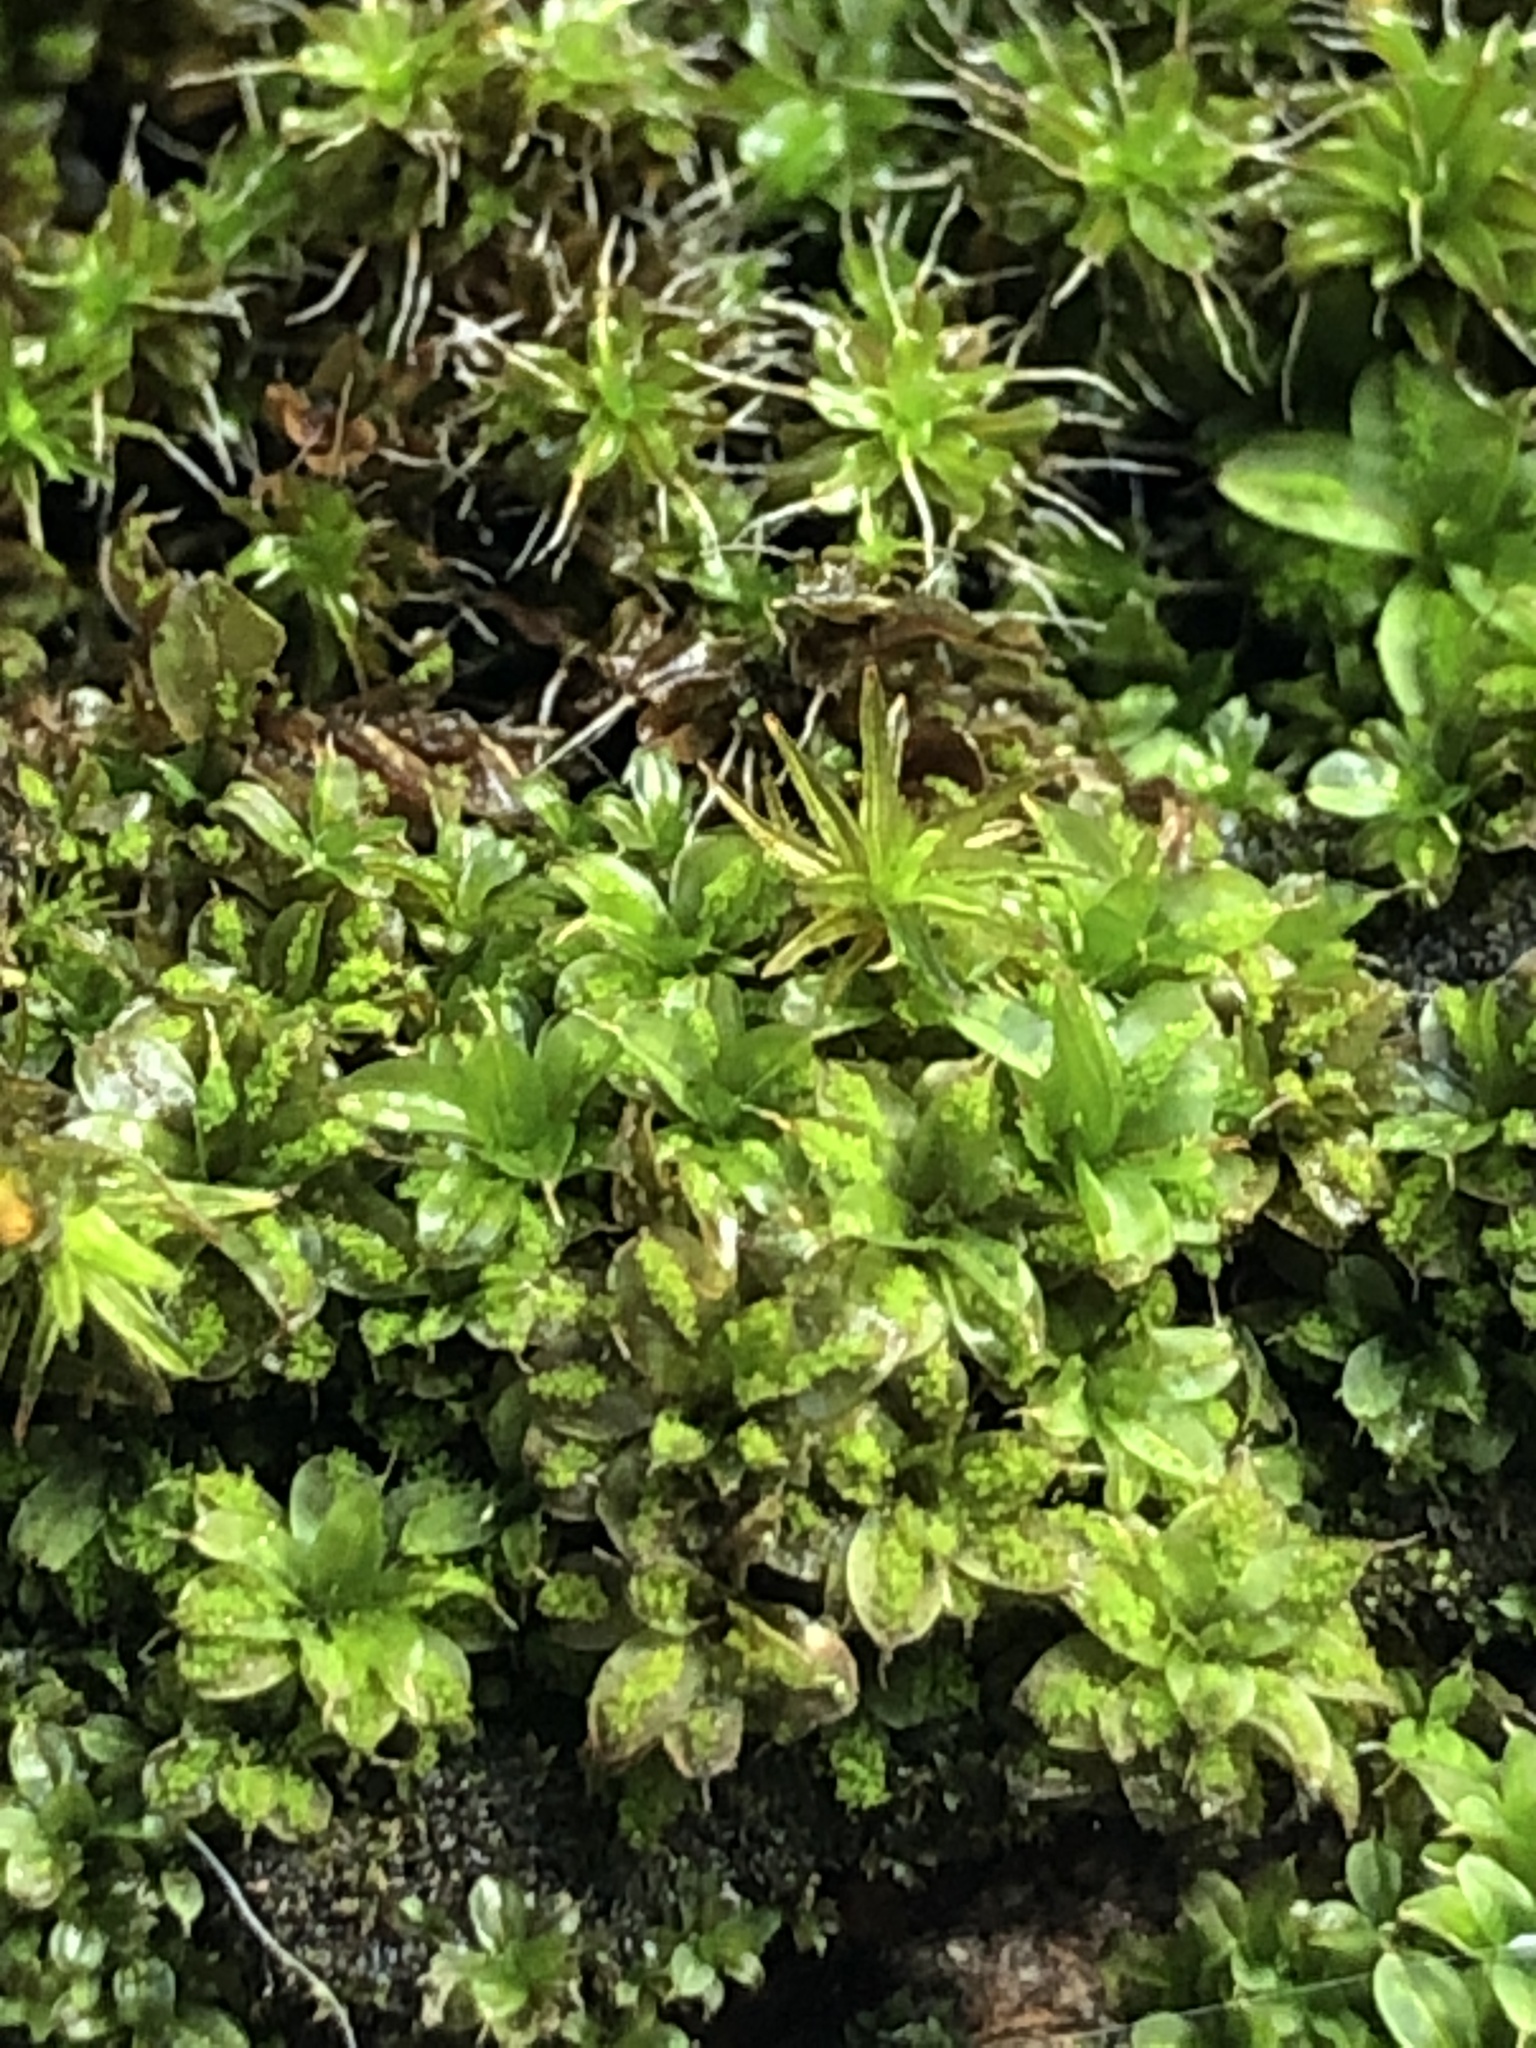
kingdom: Plantae
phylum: Bryophyta
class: Bryopsida
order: Pottiales
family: Pottiaceae
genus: Syntrichia
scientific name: Syntrichia papillosa
